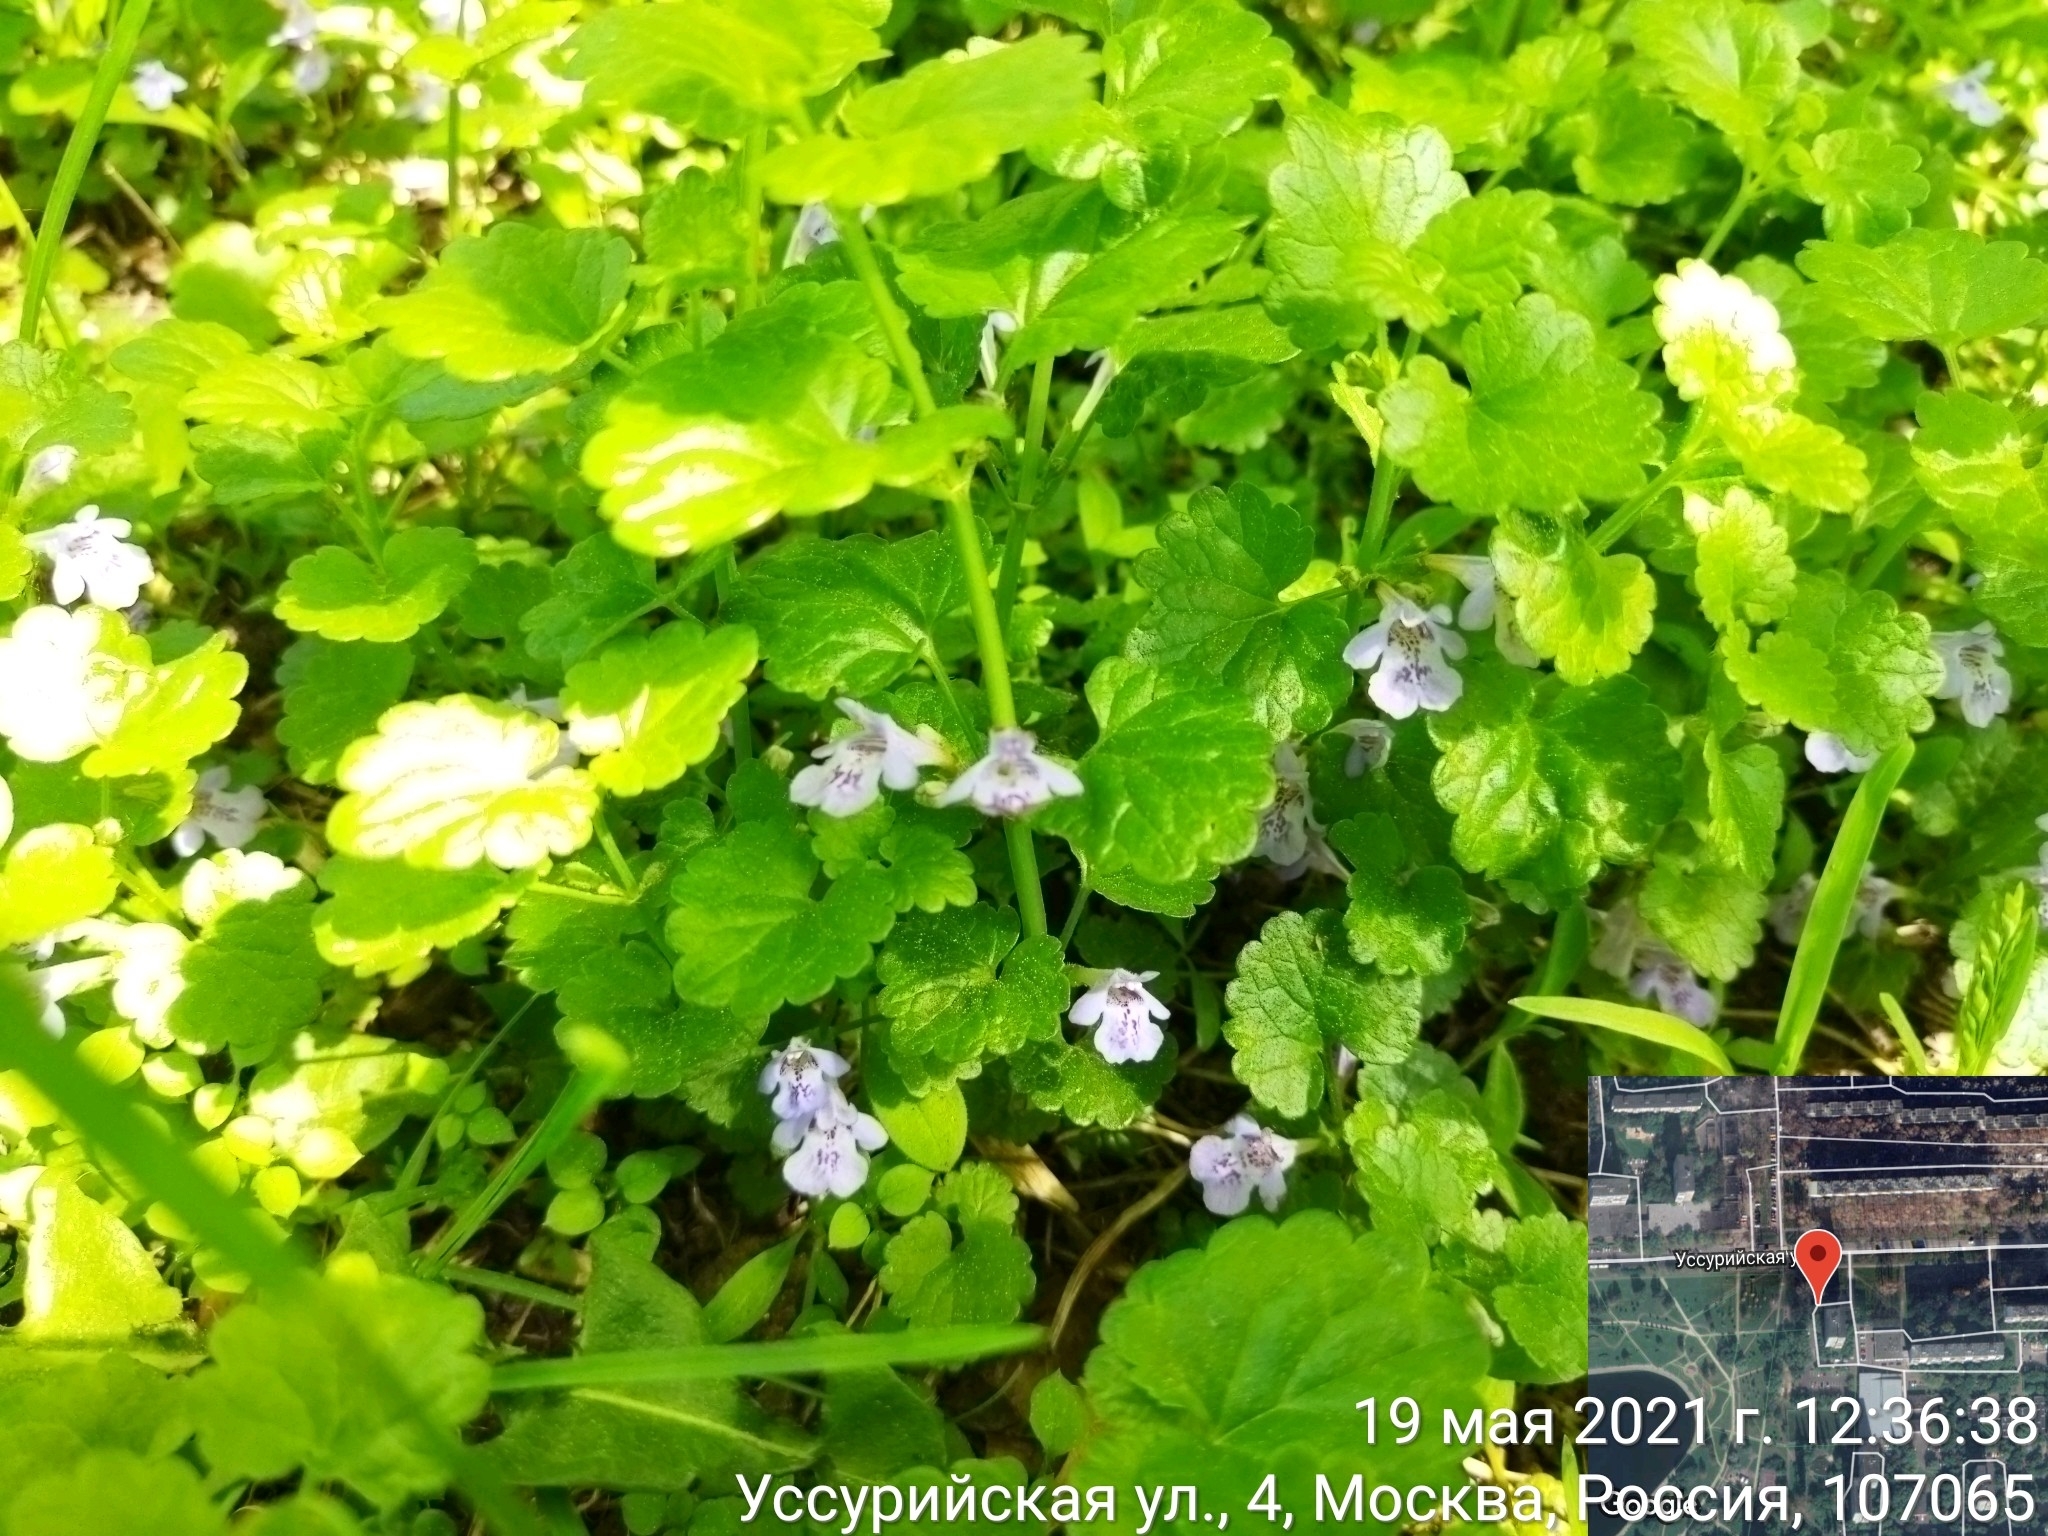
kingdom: Plantae
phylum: Tracheophyta
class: Magnoliopsida
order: Lamiales
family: Lamiaceae
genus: Glechoma
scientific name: Glechoma hederacea
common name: Ground ivy
